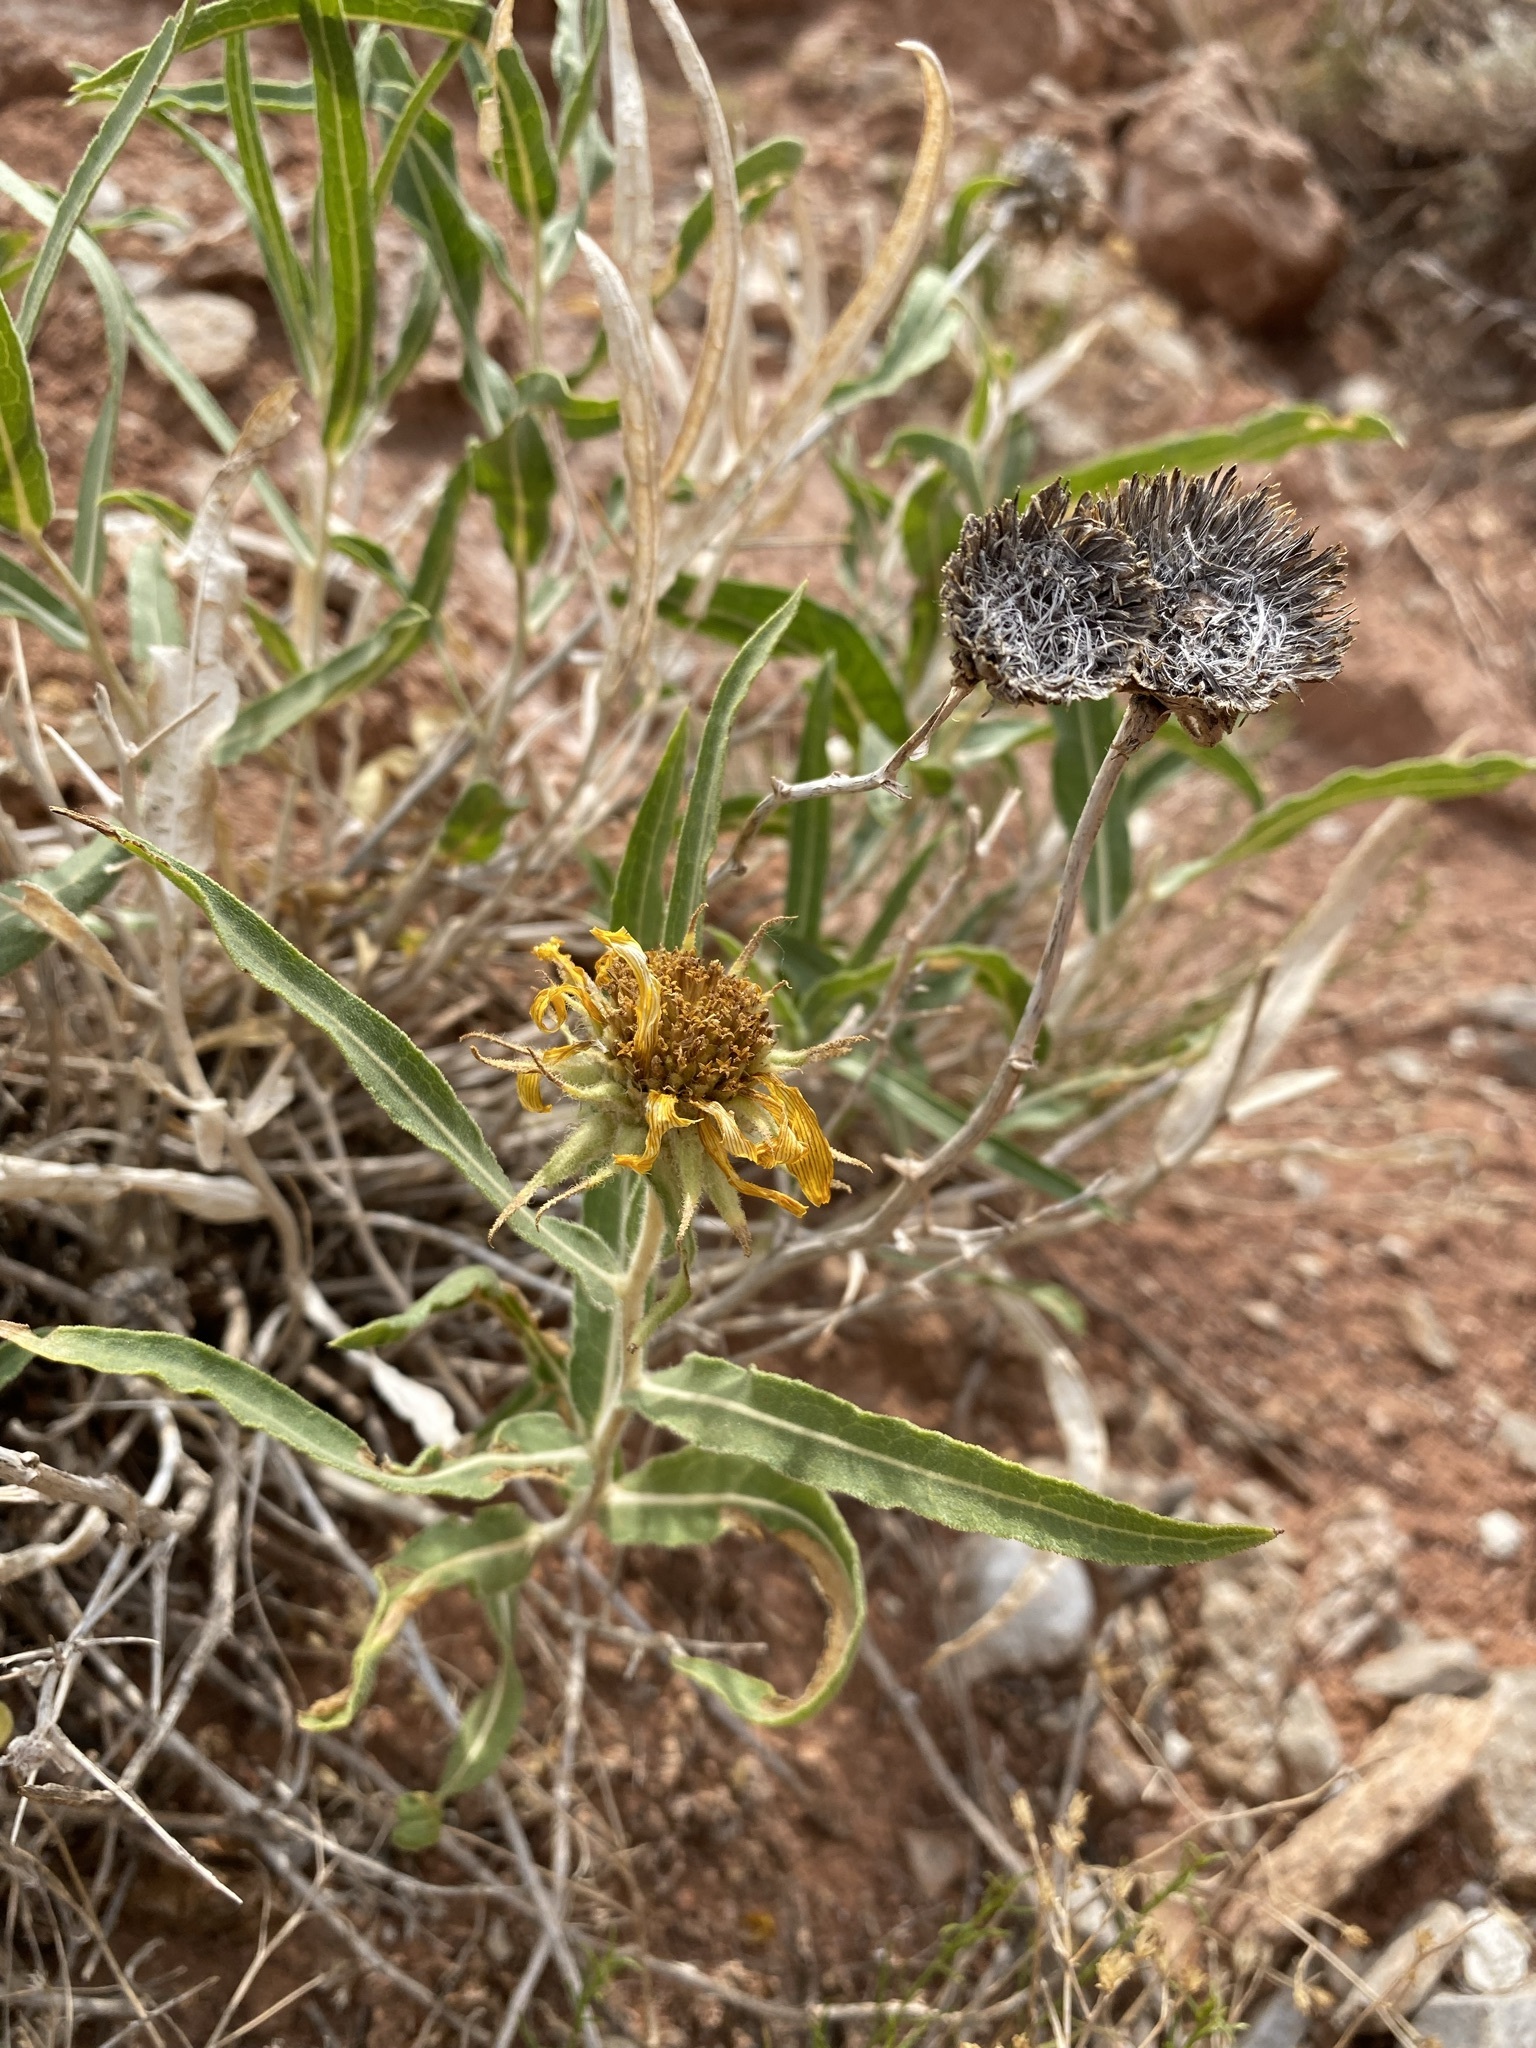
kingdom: Plantae
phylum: Tracheophyta
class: Magnoliopsida
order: Asterales
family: Asteraceae
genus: Scabrethia
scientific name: Scabrethia scabra
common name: Rough mules's-ears
